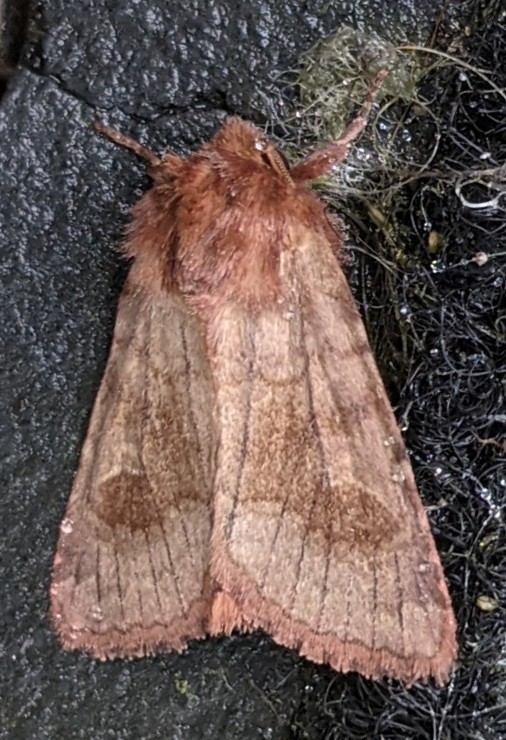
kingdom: Animalia
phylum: Arthropoda
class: Insecta
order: Lepidoptera
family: Noctuidae
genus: Nephelodes
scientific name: Nephelodes minians
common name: Bronzed cutworm
